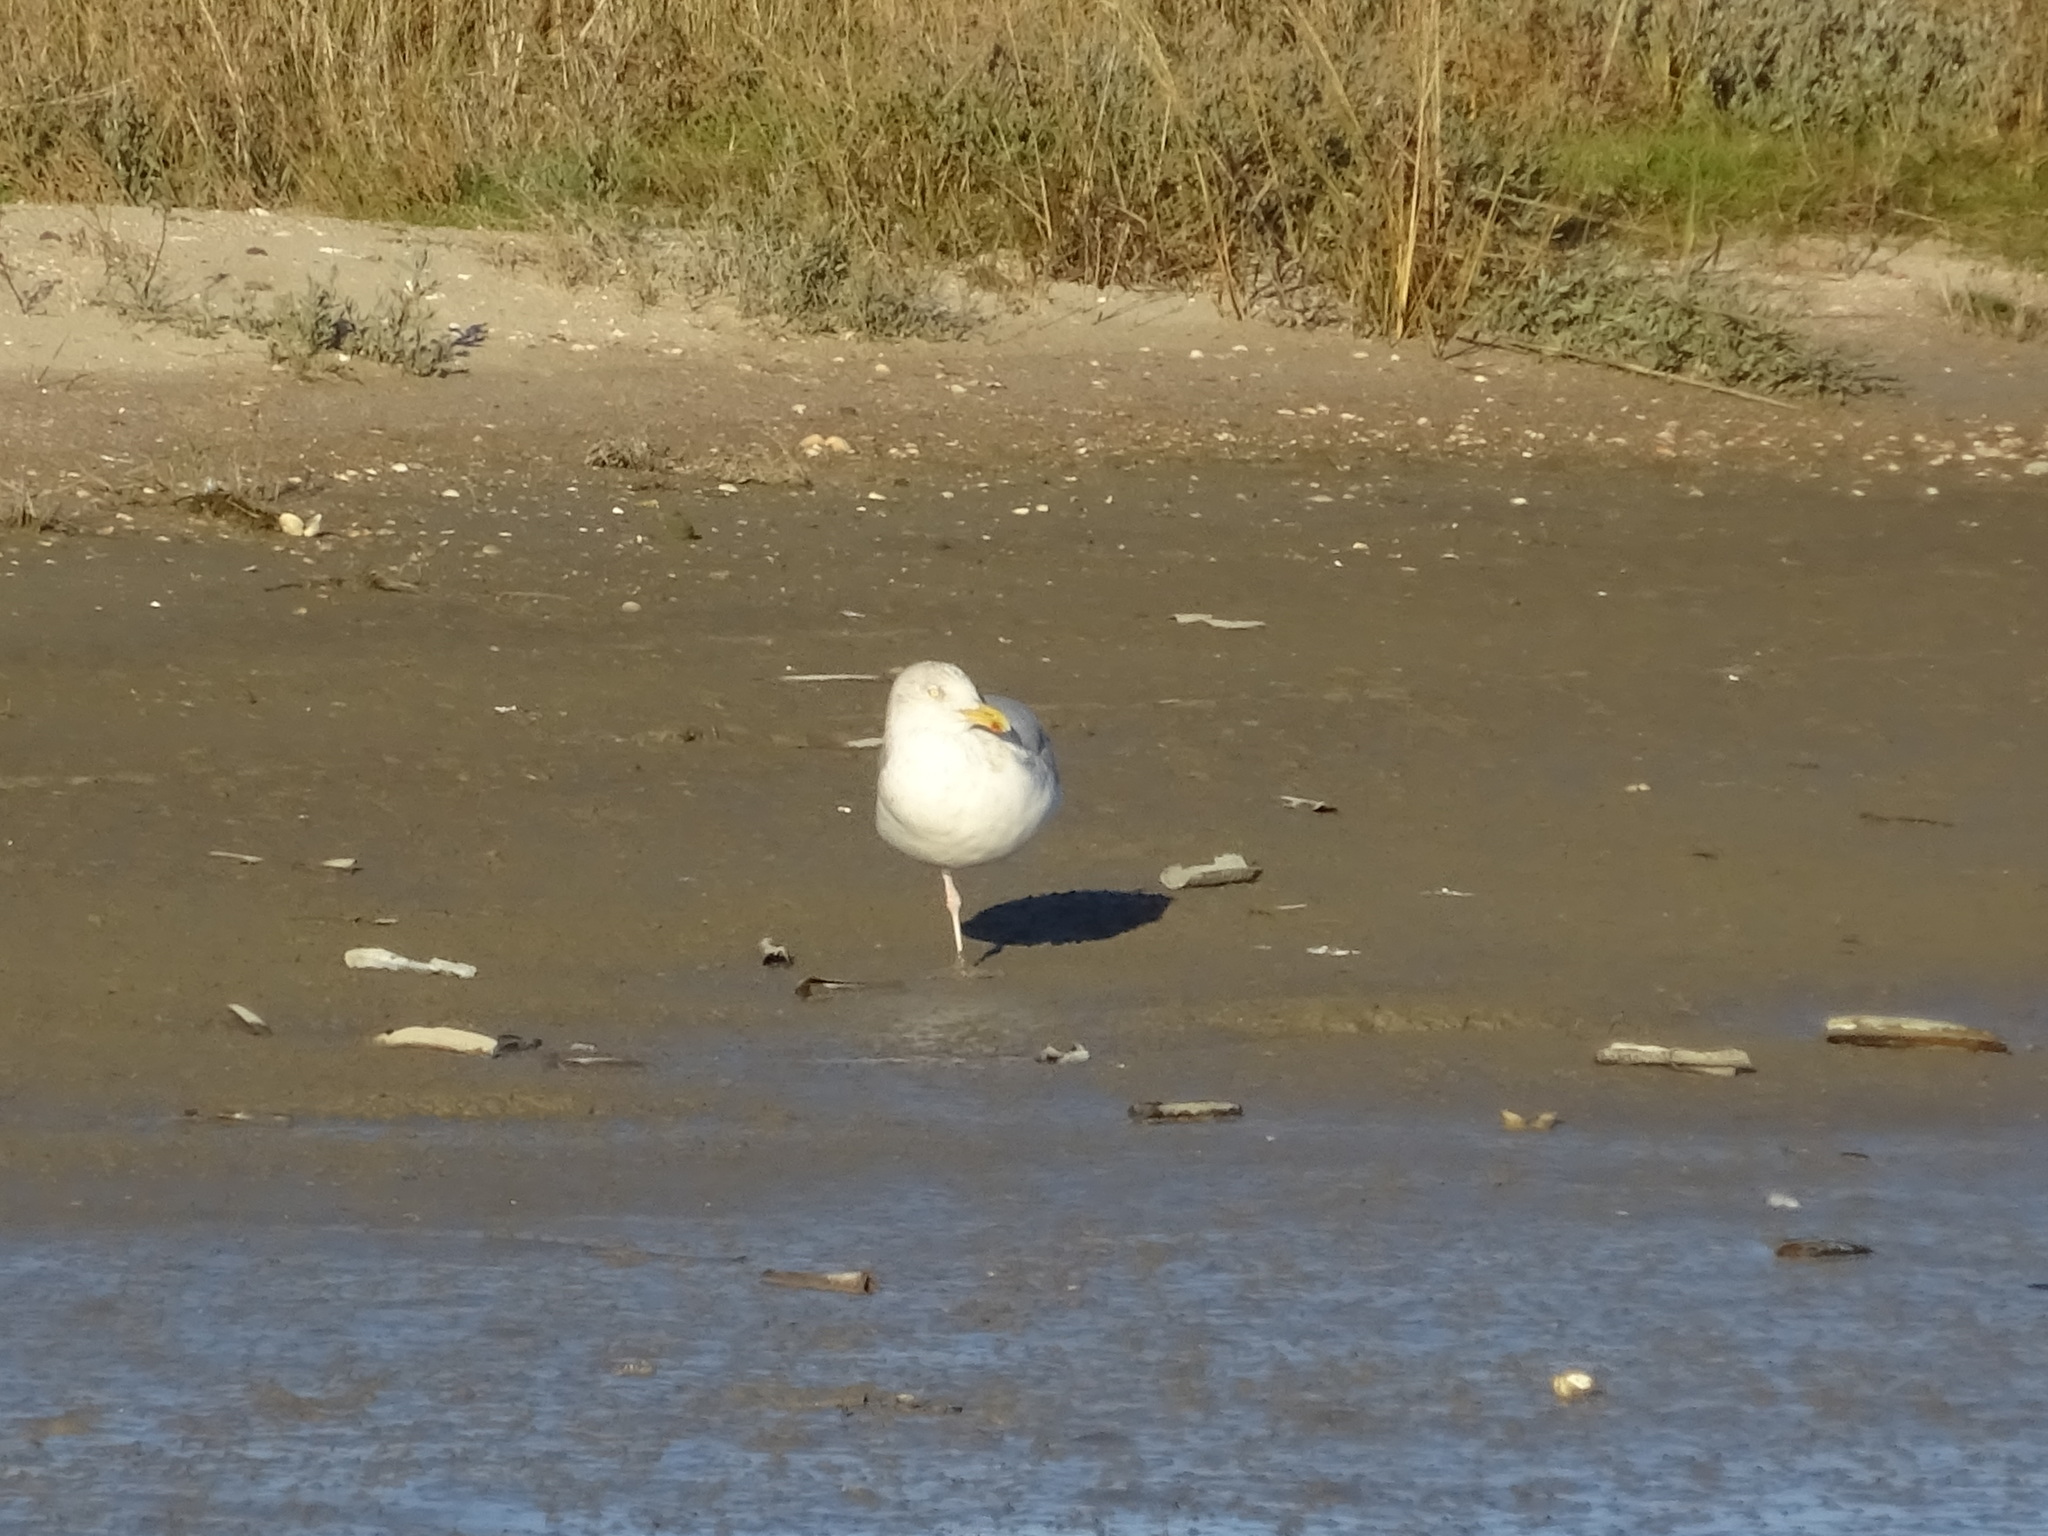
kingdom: Animalia
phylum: Chordata
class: Aves
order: Charadriiformes
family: Laridae
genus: Larus
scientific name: Larus argentatus
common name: Herring gull
